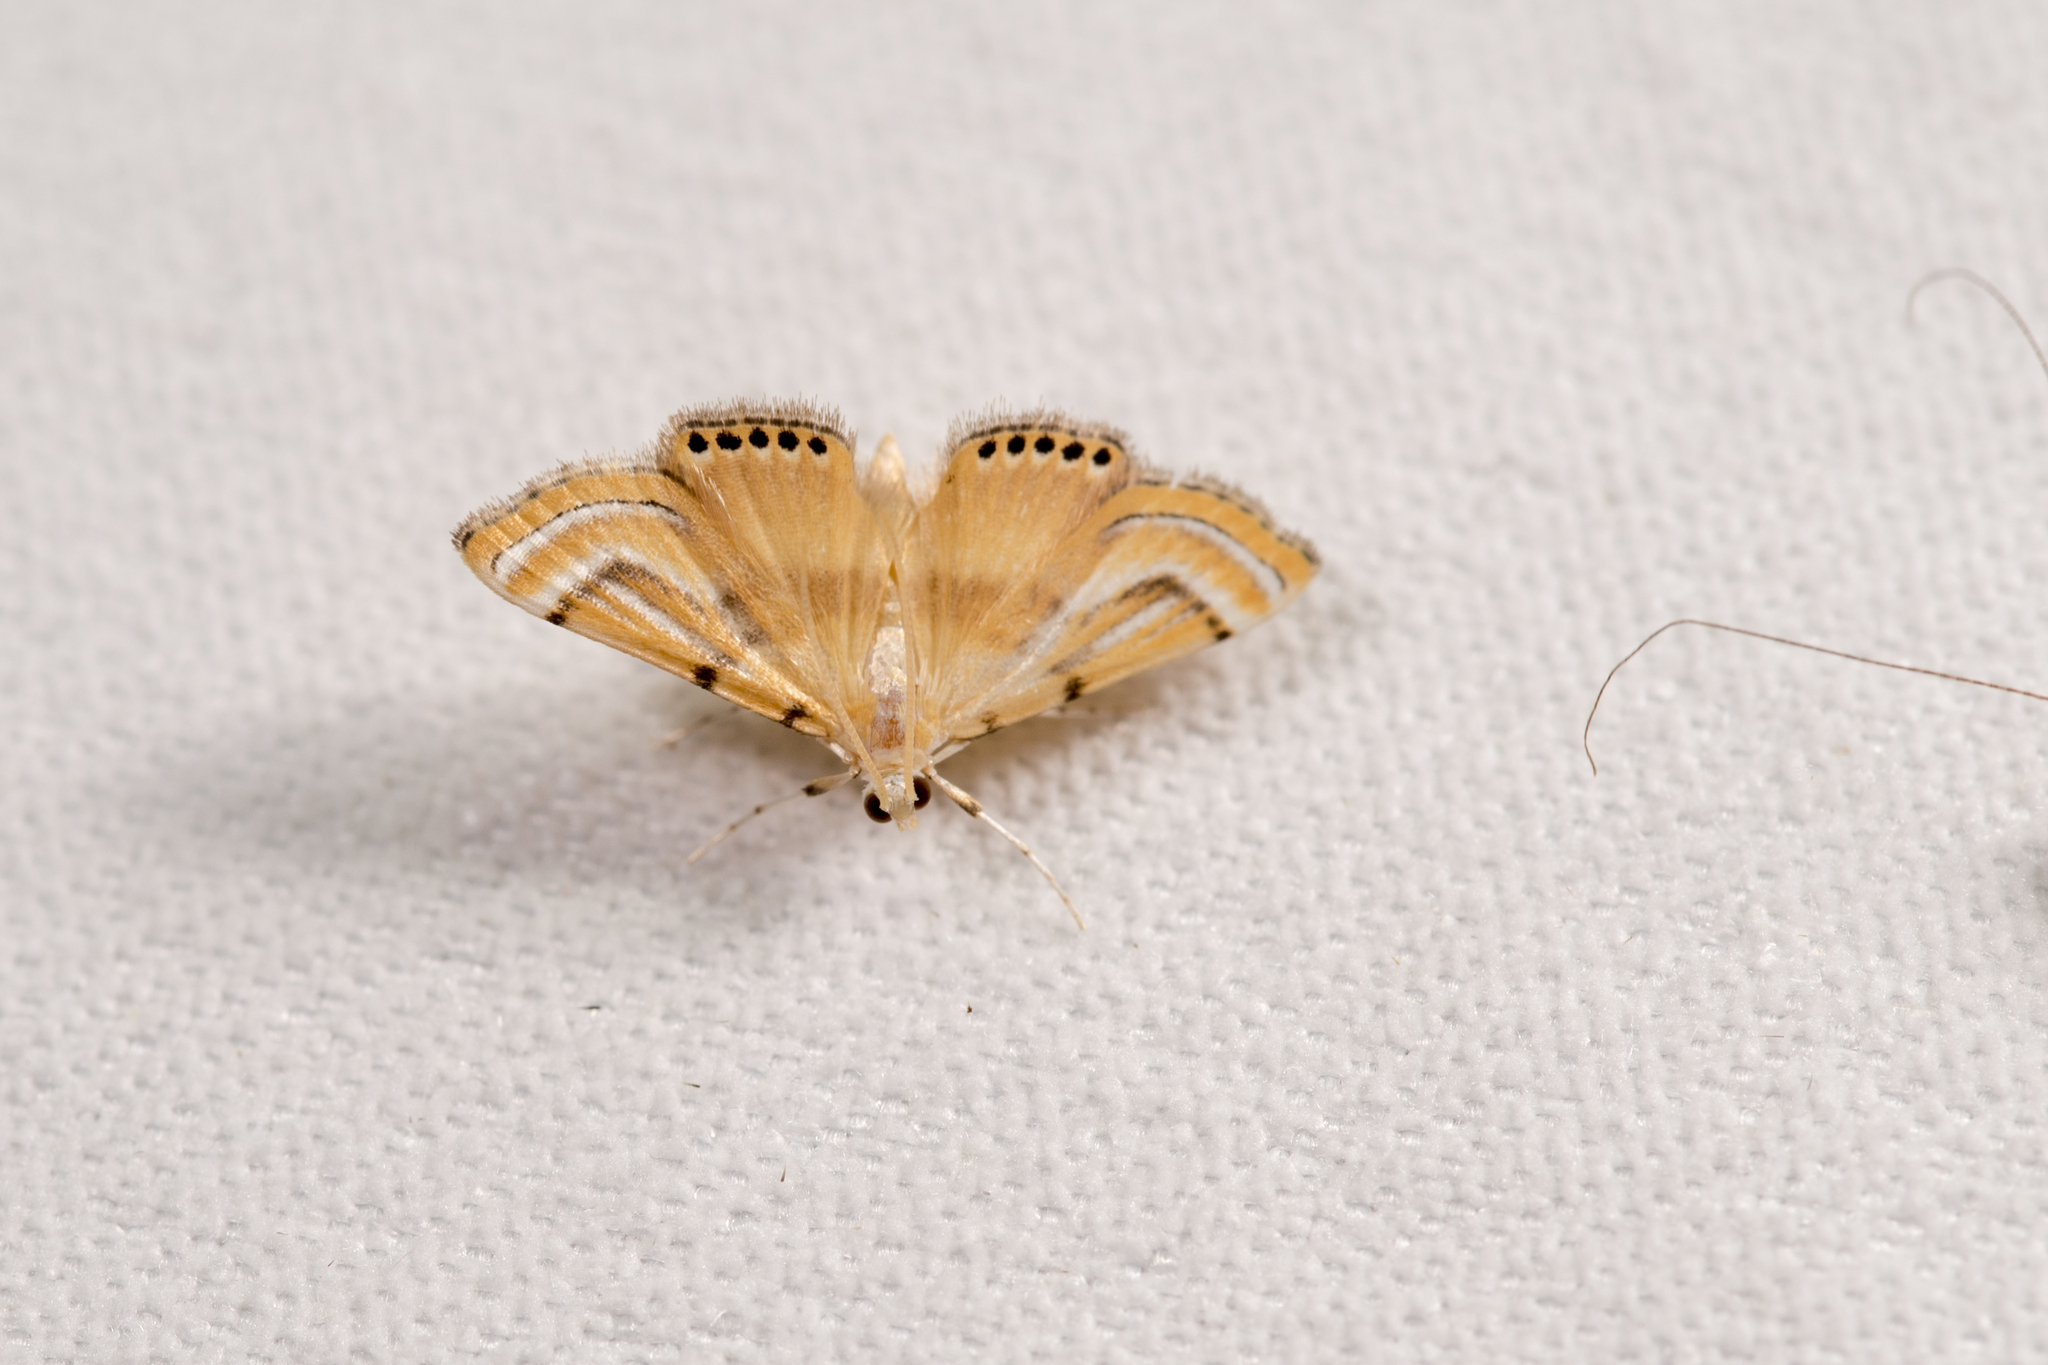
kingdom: Animalia
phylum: Arthropoda
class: Insecta
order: Lepidoptera
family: Crambidae
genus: Cataclysta
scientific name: Cataclysta angulata
